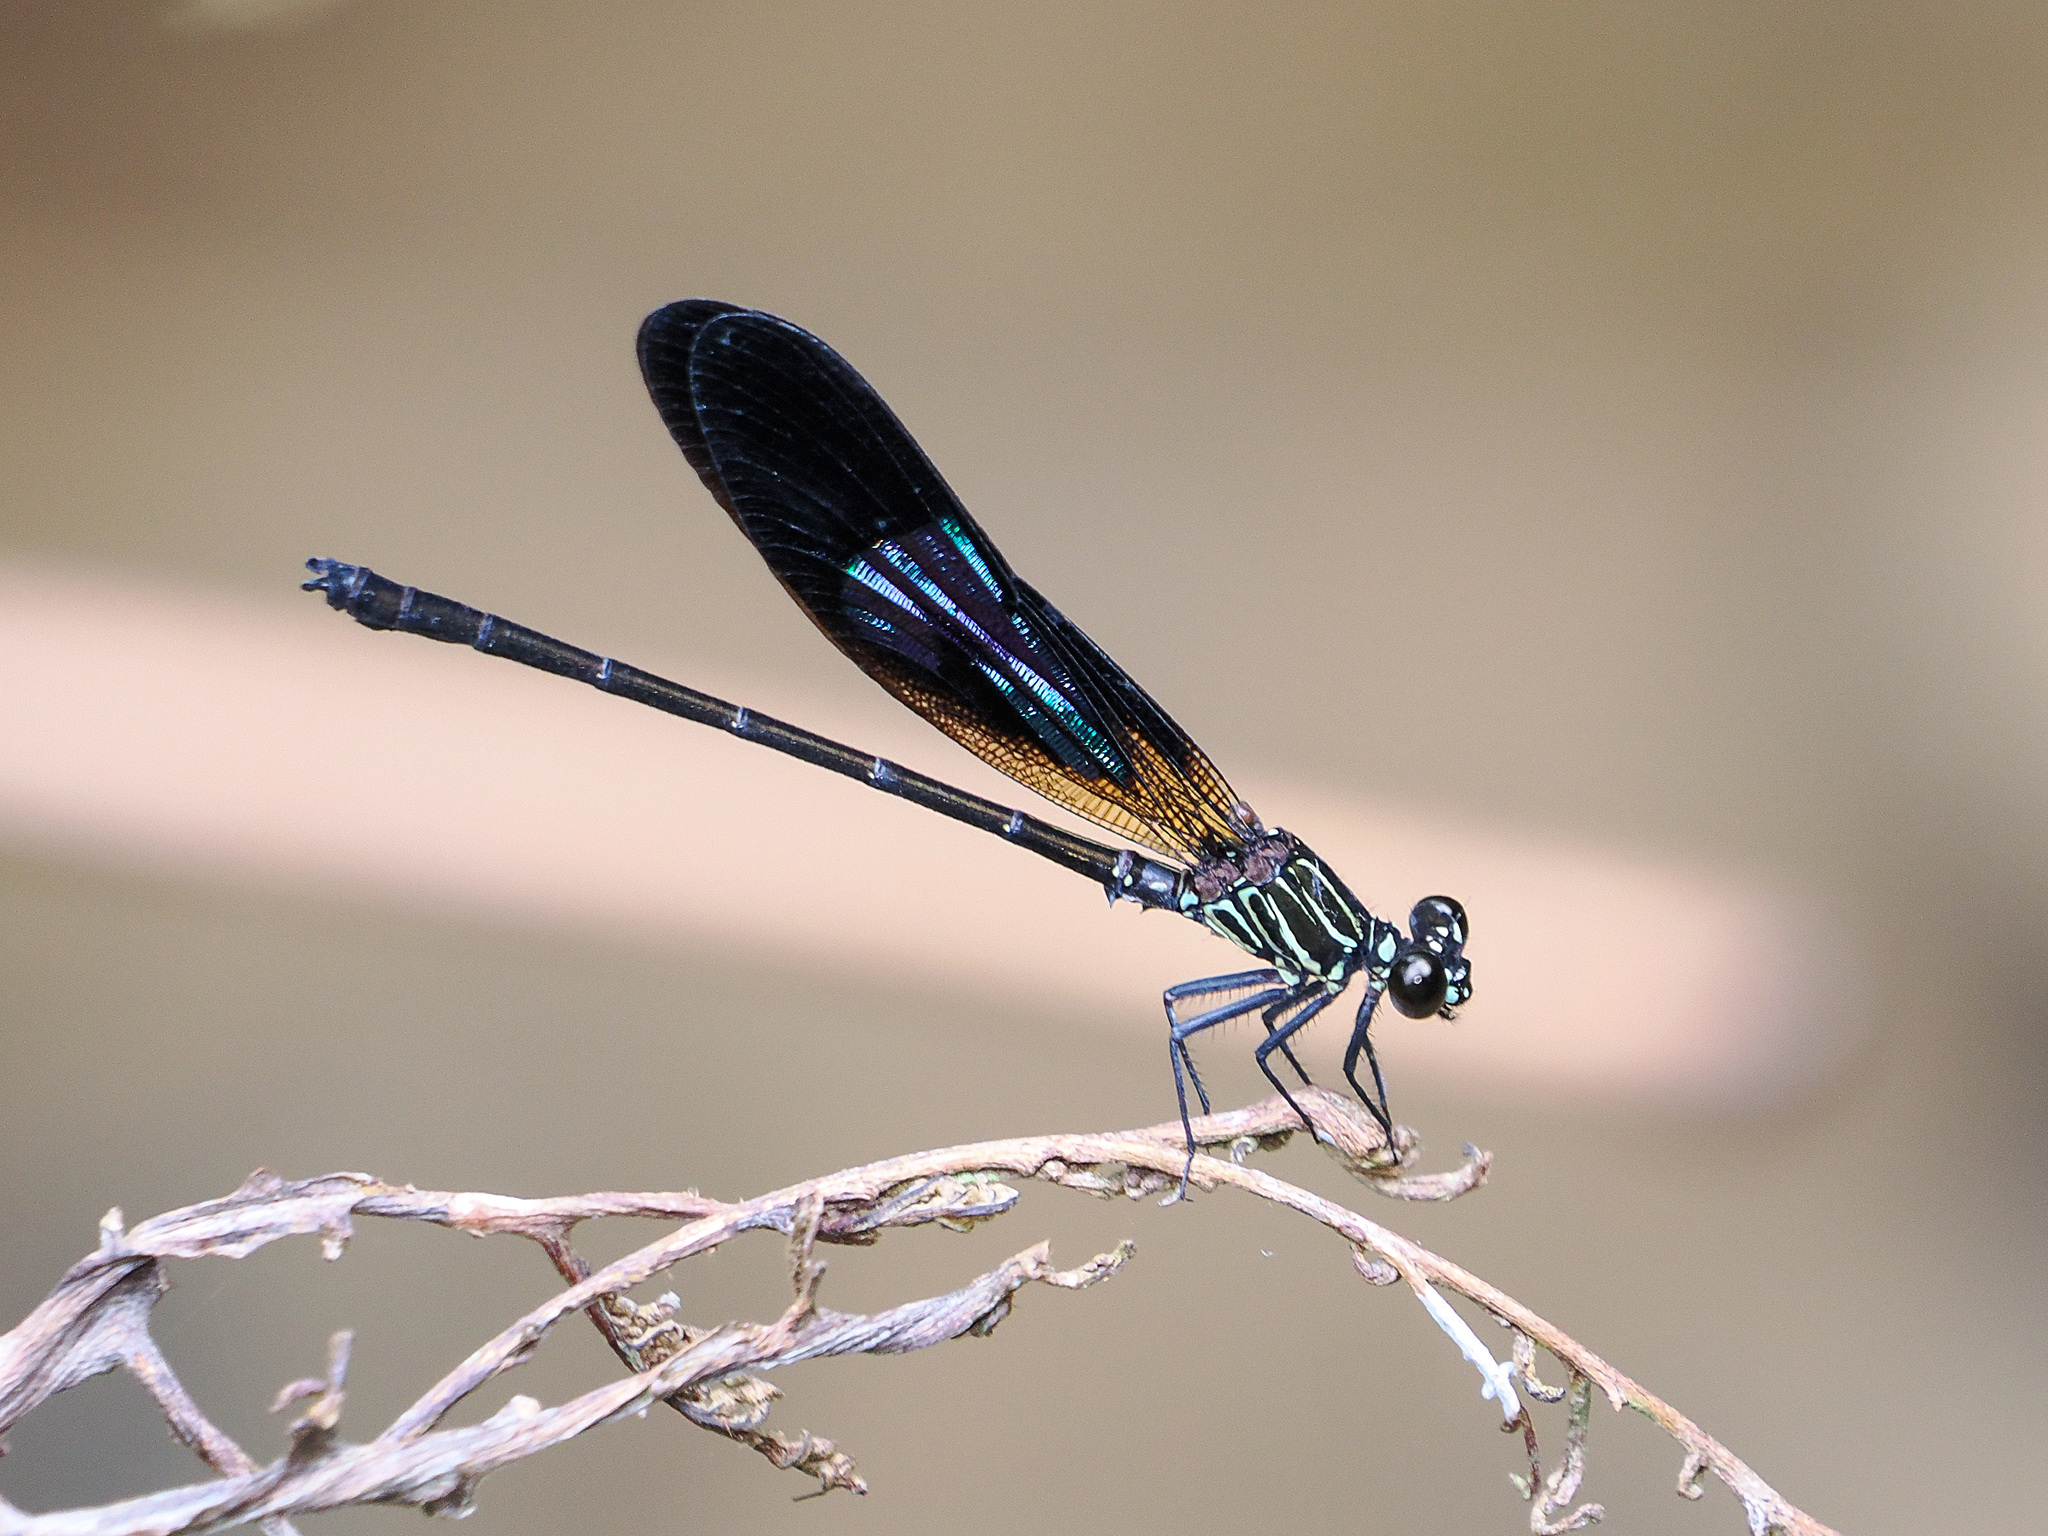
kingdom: Animalia
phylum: Arthropoda
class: Insecta
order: Odonata
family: Euphaeidae
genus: Euphaea
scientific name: Euphaea aspasia
